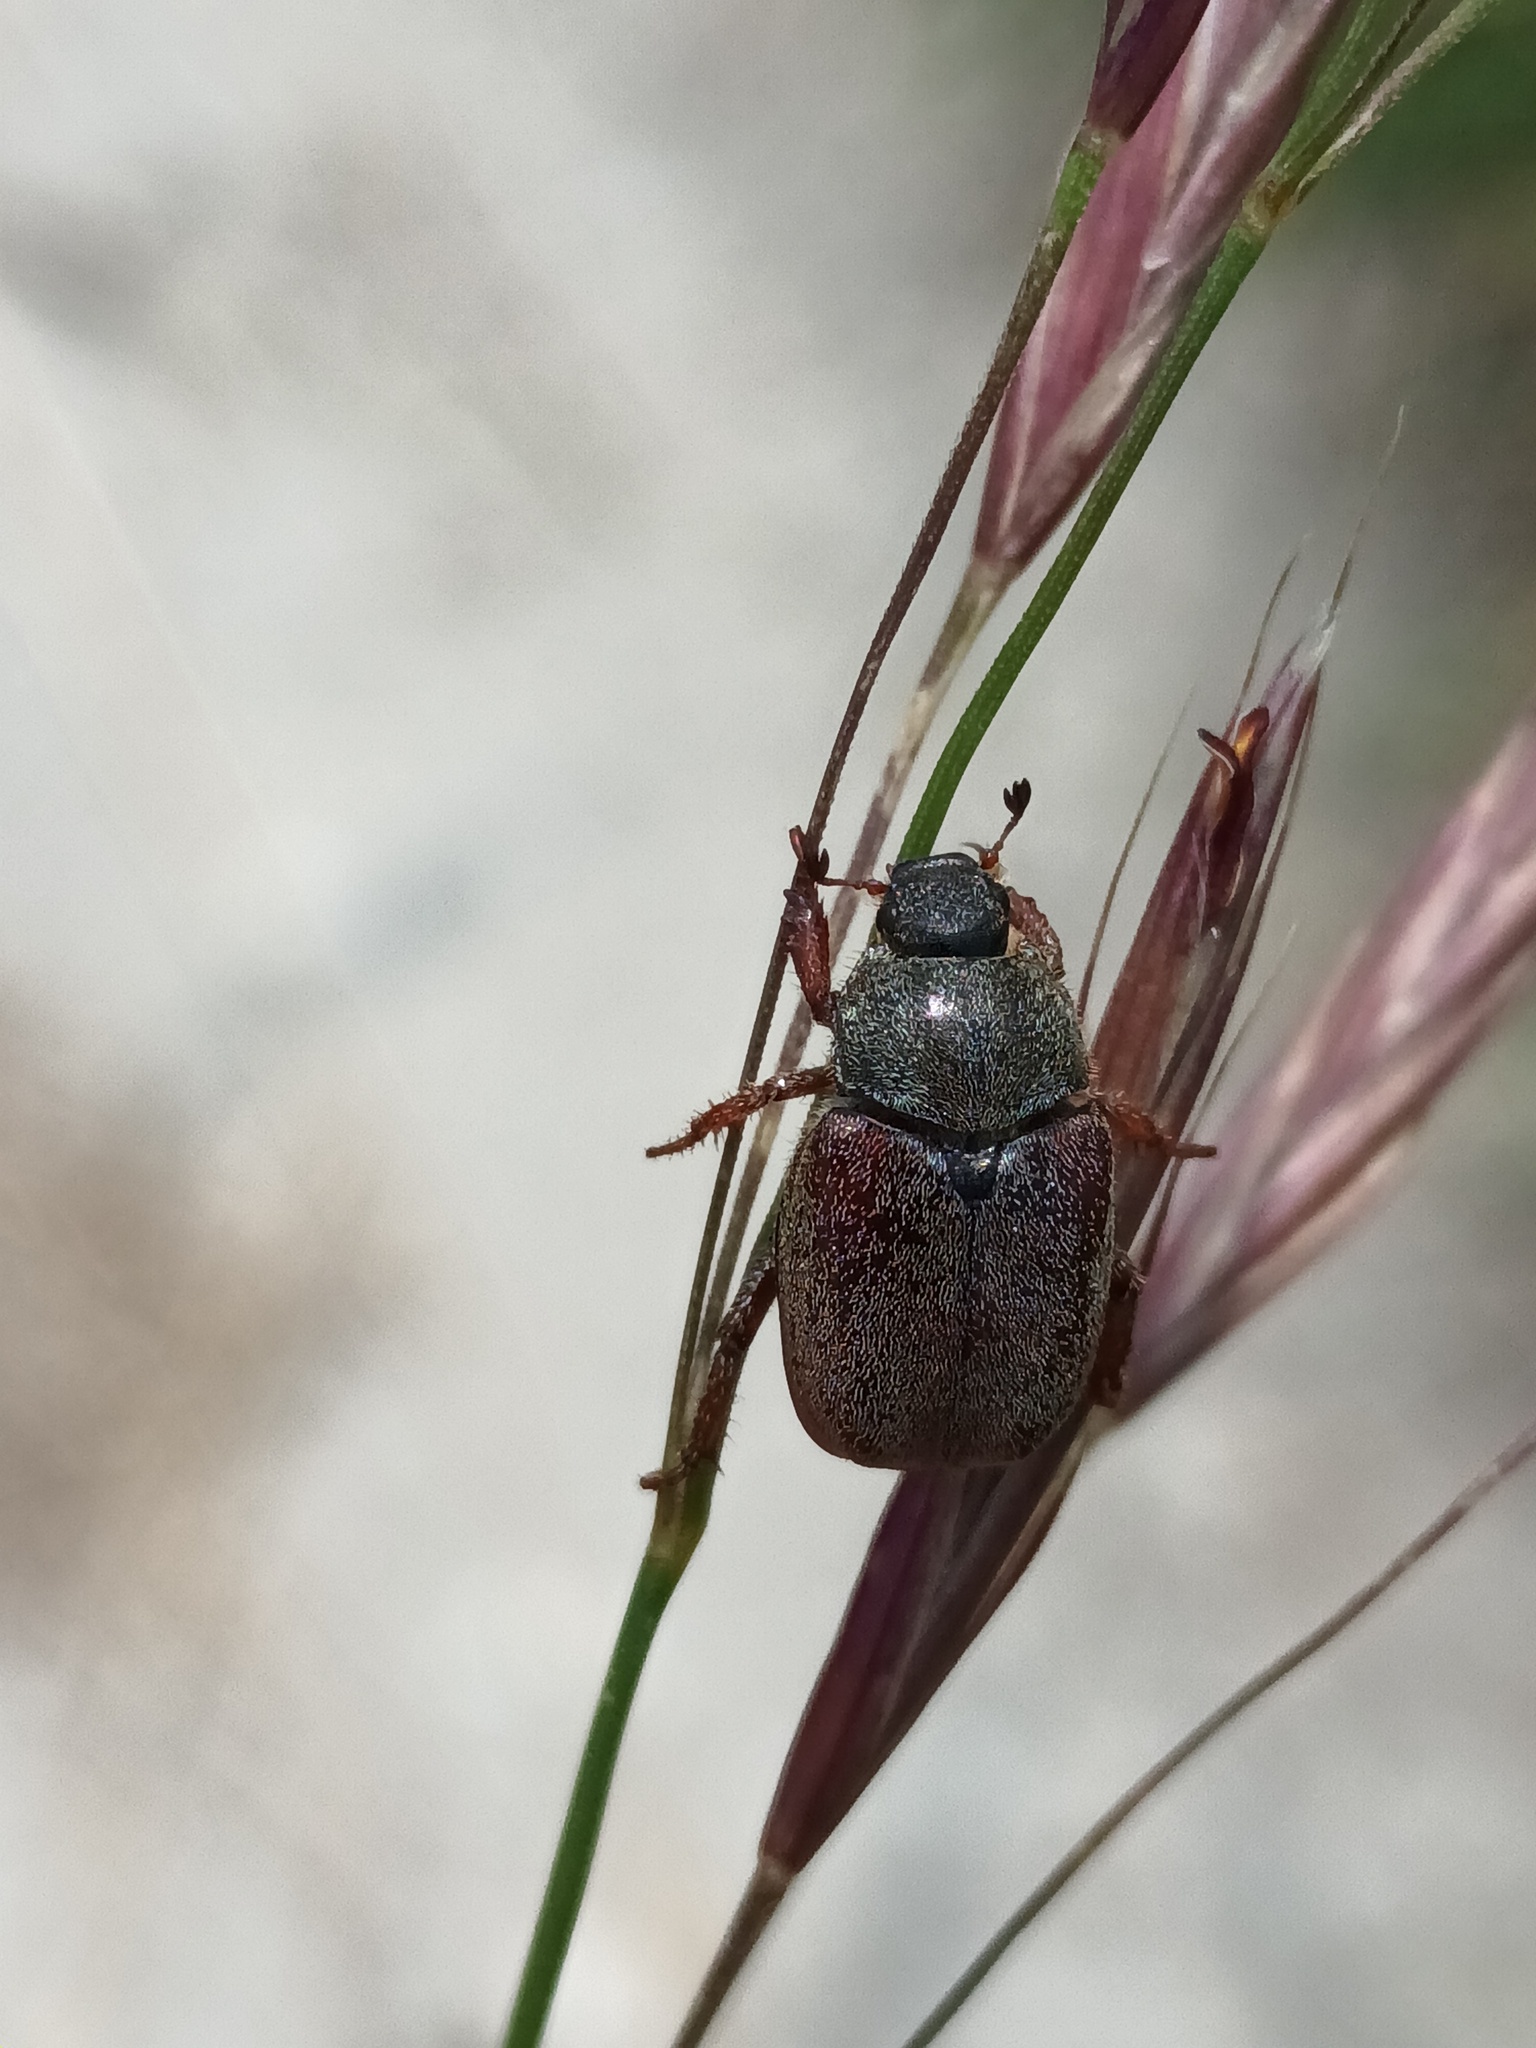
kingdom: Animalia
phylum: Arthropoda
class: Insecta
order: Coleoptera
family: Scarabaeidae
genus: Hoplia
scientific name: Hoplia philanthus
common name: Welsh chafer
